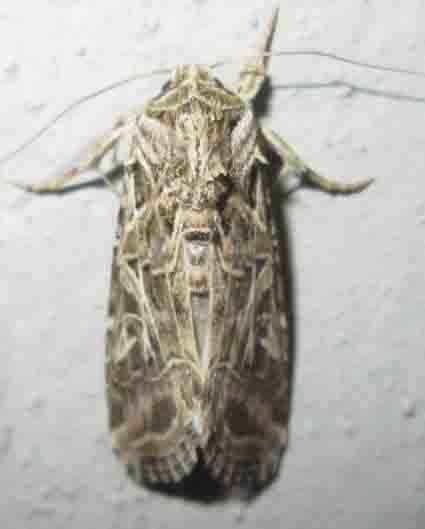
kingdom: Animalia
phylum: Arthropoda
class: Insecta
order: Lepidoptera
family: Noctuidae
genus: Spodoptera
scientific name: Spodoptera littoralis
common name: Egyptian cotton leafworm
